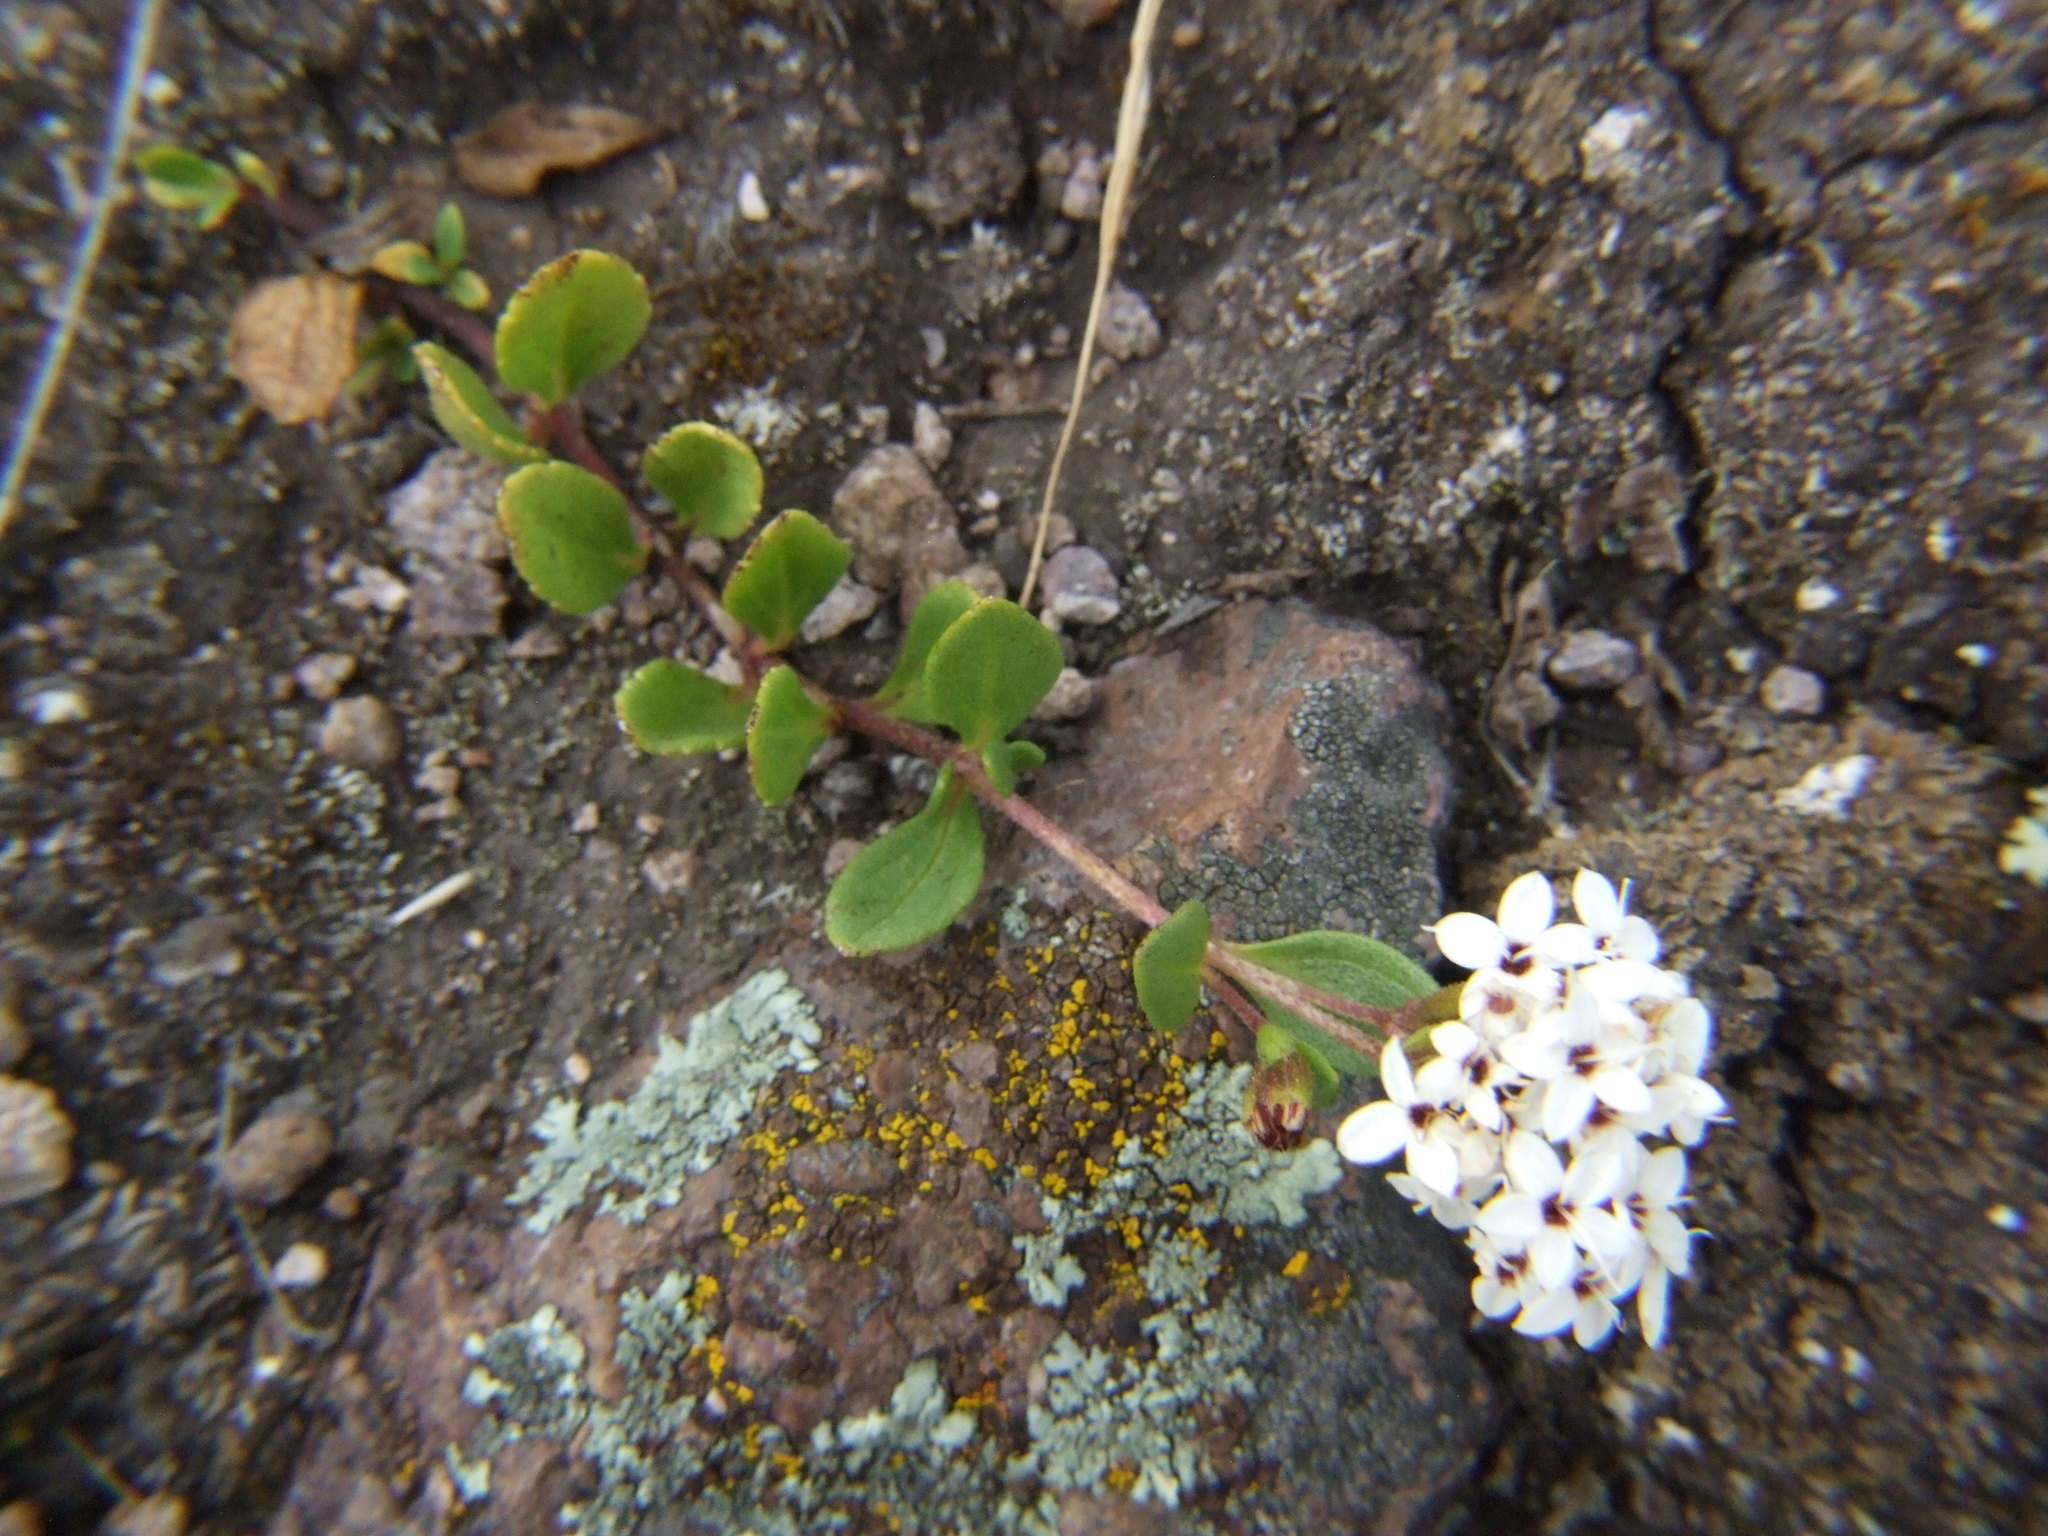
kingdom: Plantae
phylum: Tracheophyta
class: Magnoliopsida
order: Asterales
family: Asteraceae
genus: Stevia
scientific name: Stevia mandonii
